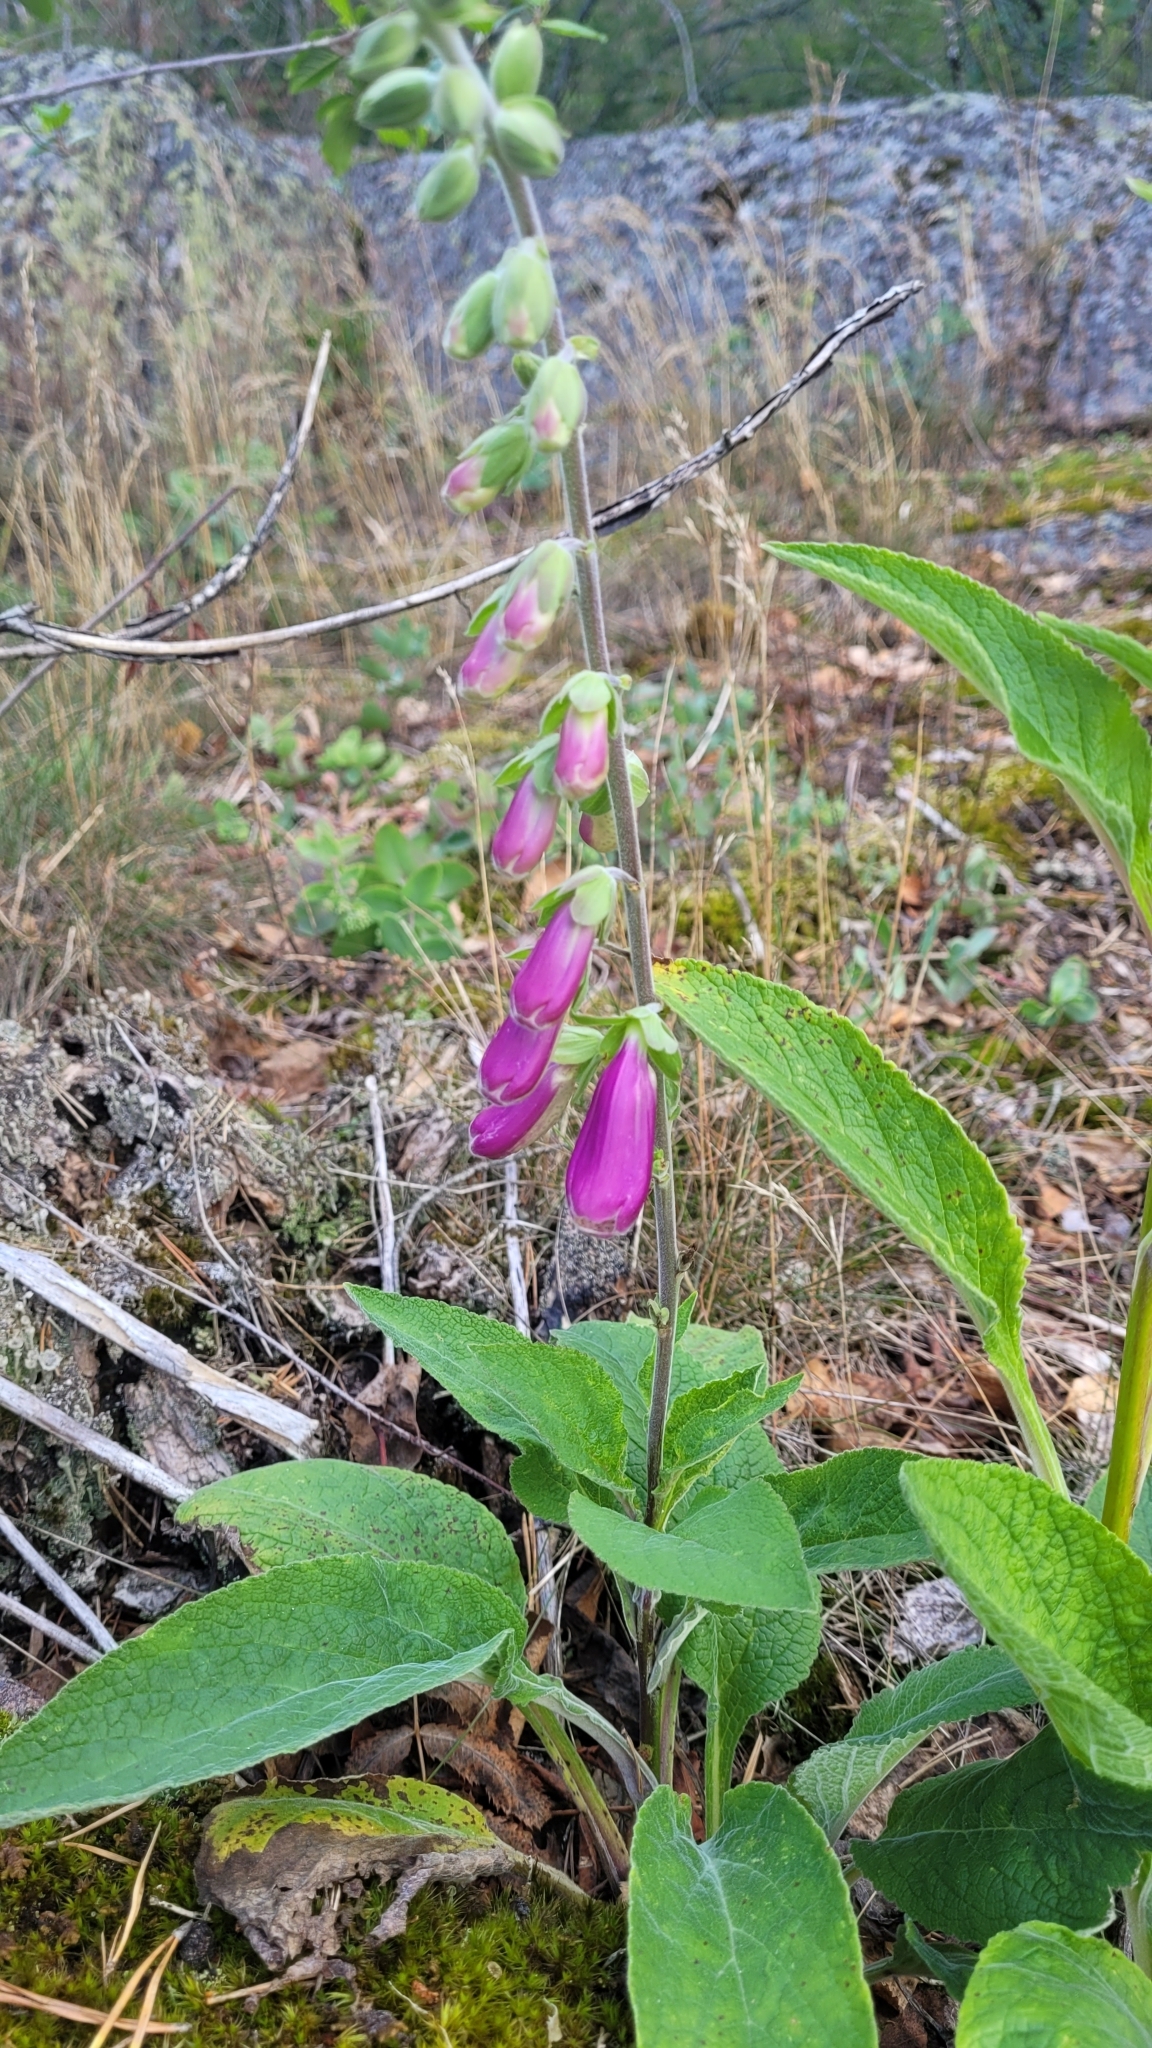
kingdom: Plantae
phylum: Tracheophyta
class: Magnoliopsida
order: Lamiales
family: Plantaginaceae
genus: Digitalis
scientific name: Digitalis purpurea
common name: Foxglove
